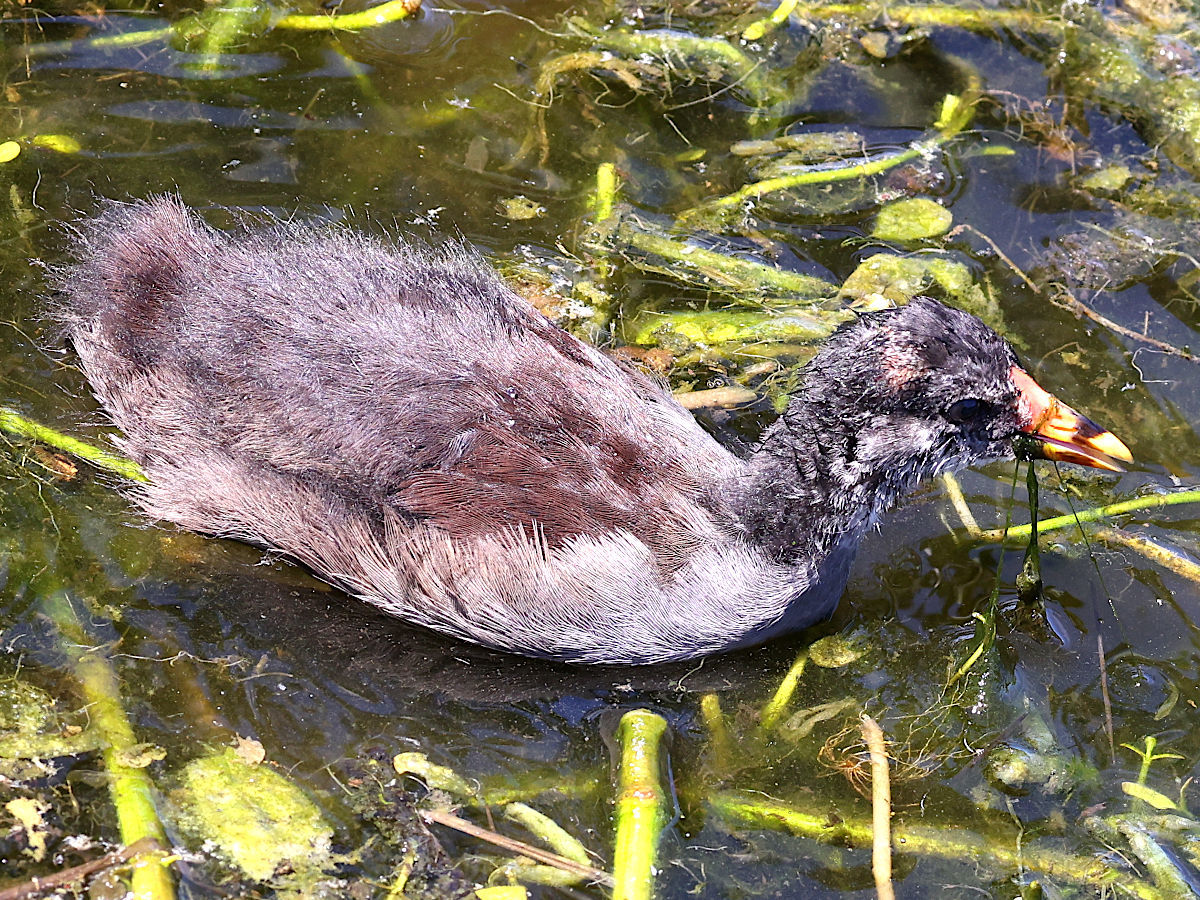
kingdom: Animalia
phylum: Chordata
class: Aves
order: Gruiformes
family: Rallidae
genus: Gallinula
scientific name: Gallinula chloropus
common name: Common moorhen
